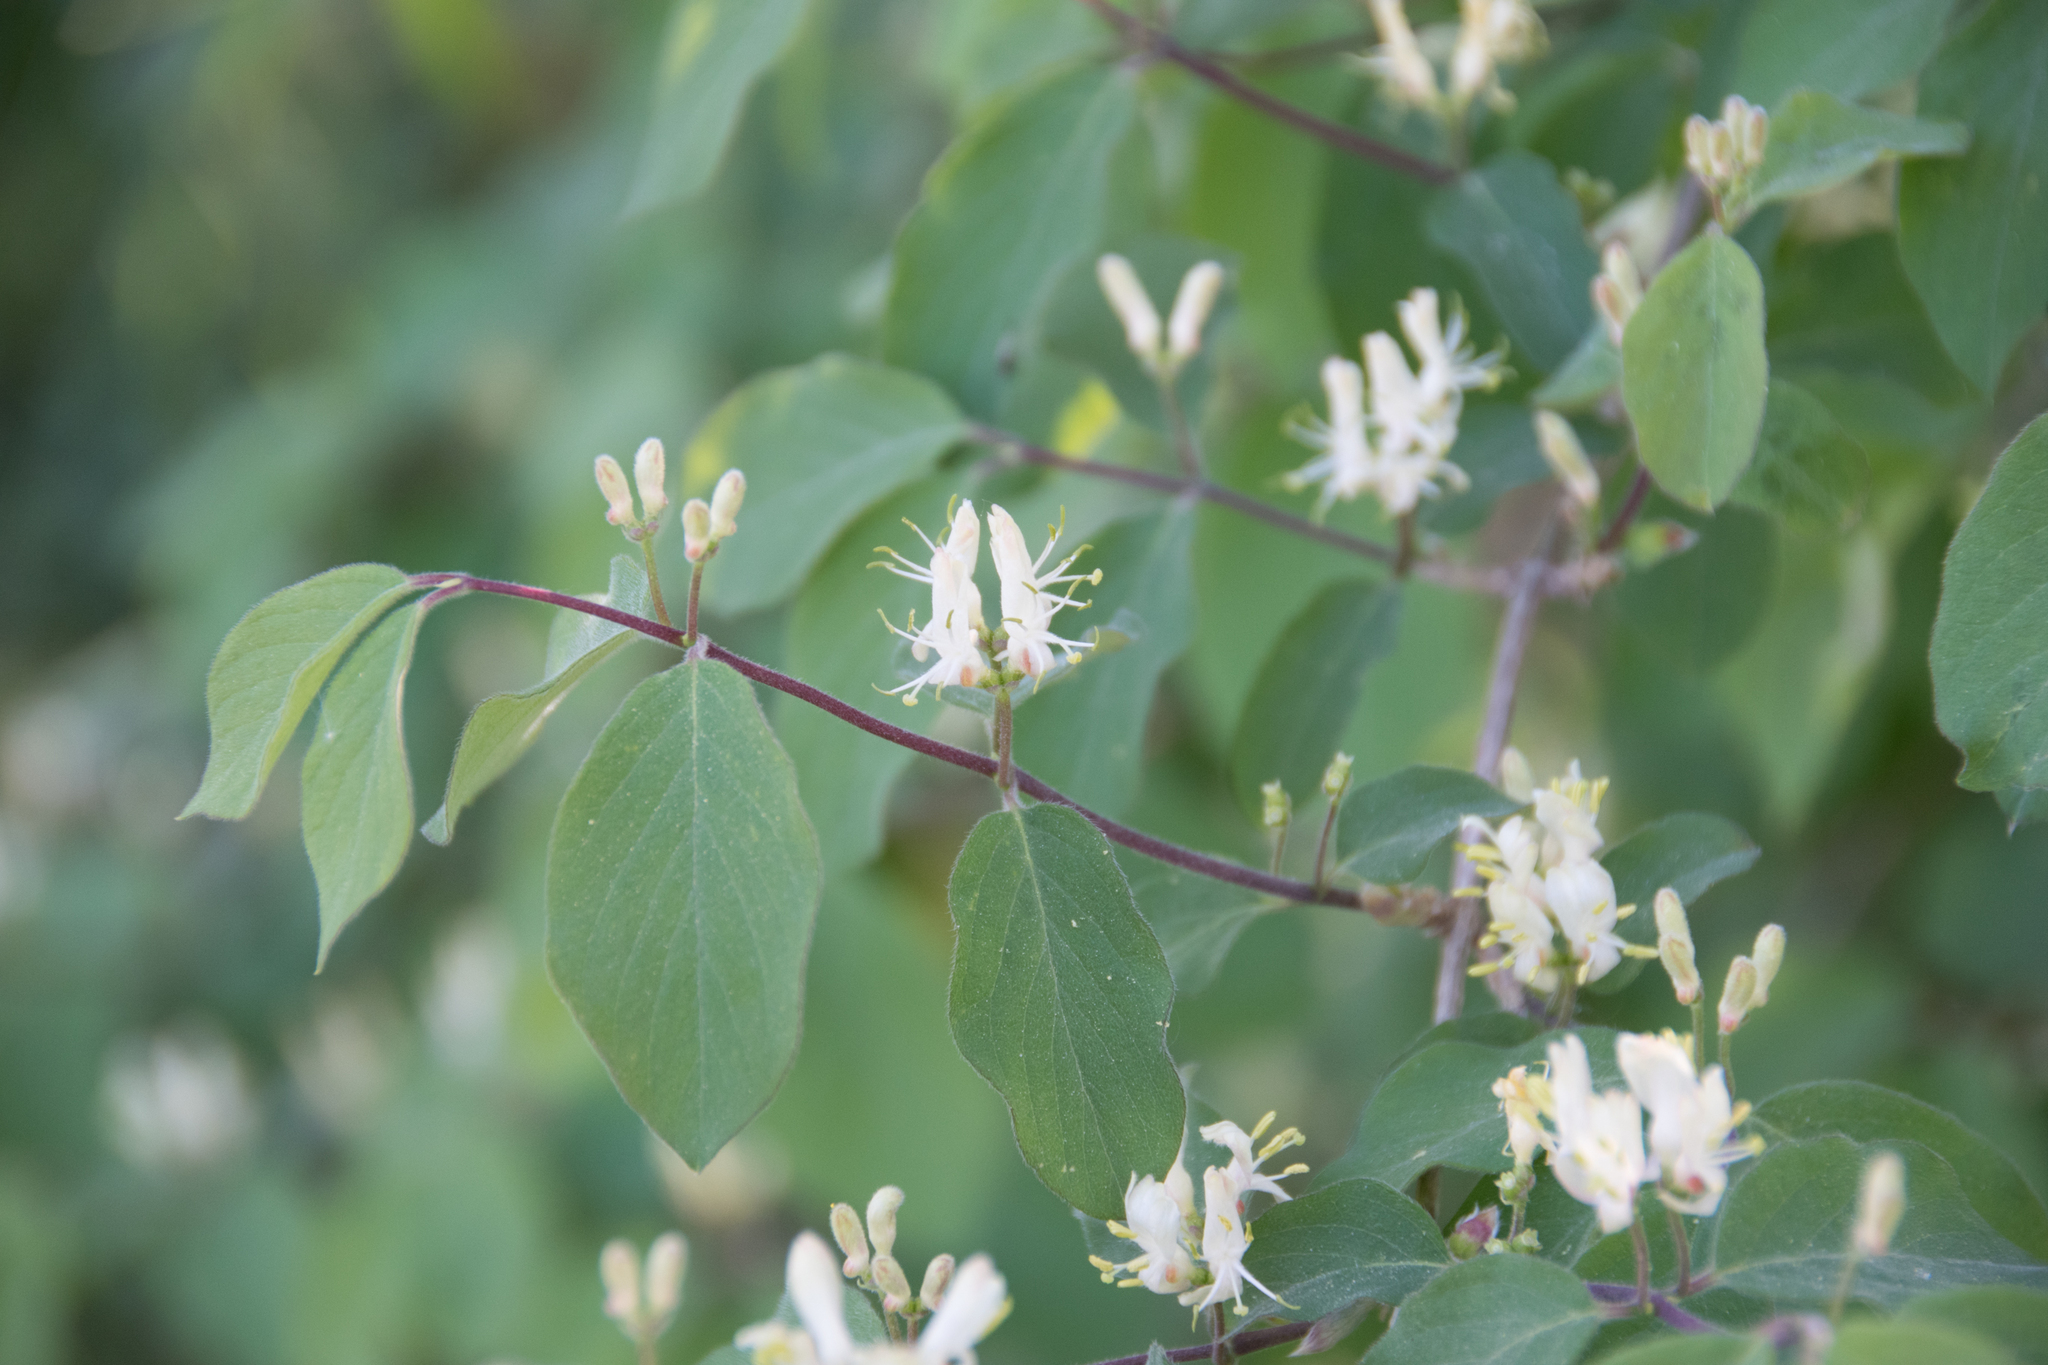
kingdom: Plantae
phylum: Tracheophyta
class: Magnoliopsida
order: Dipsacales
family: Caprifoliaceae
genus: Lonicera
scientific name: Lonicera xylosteum
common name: Fly honeysuckle
